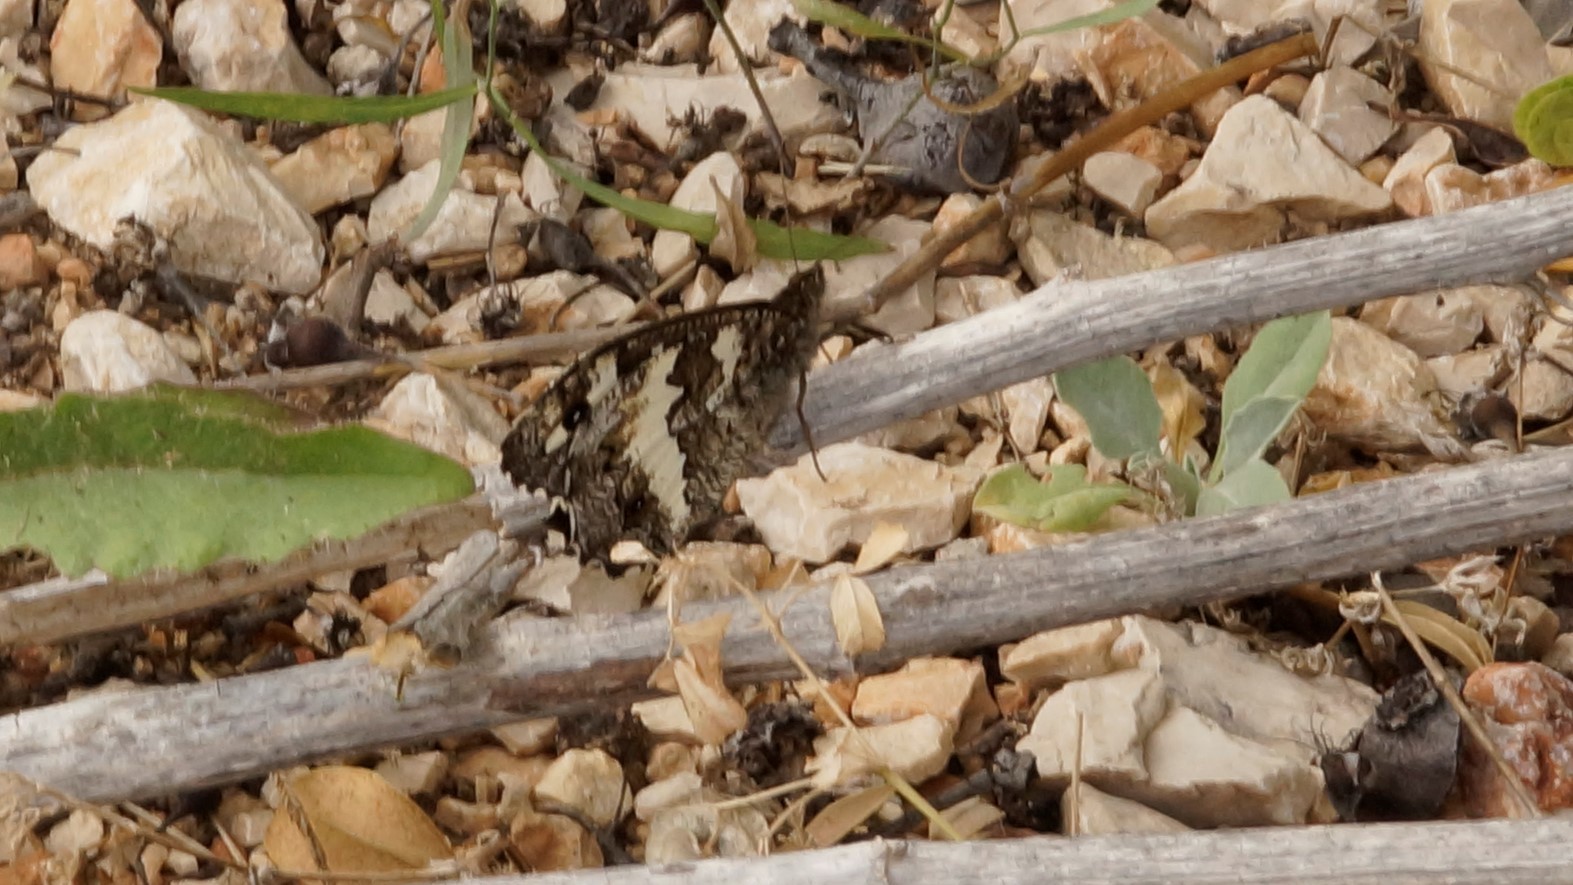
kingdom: Animalia
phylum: Arthropoda
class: Insecta
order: Lepidoptera
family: Lycaenidae
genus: Loweia
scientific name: Loweia tityrus
